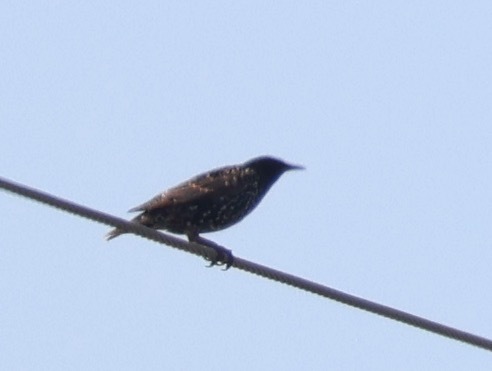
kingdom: Animalia
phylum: Chordata
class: Aves
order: Passeriformes
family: Sturnidae
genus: Sturnus
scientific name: Sturnus vulgaris
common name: Common starling
